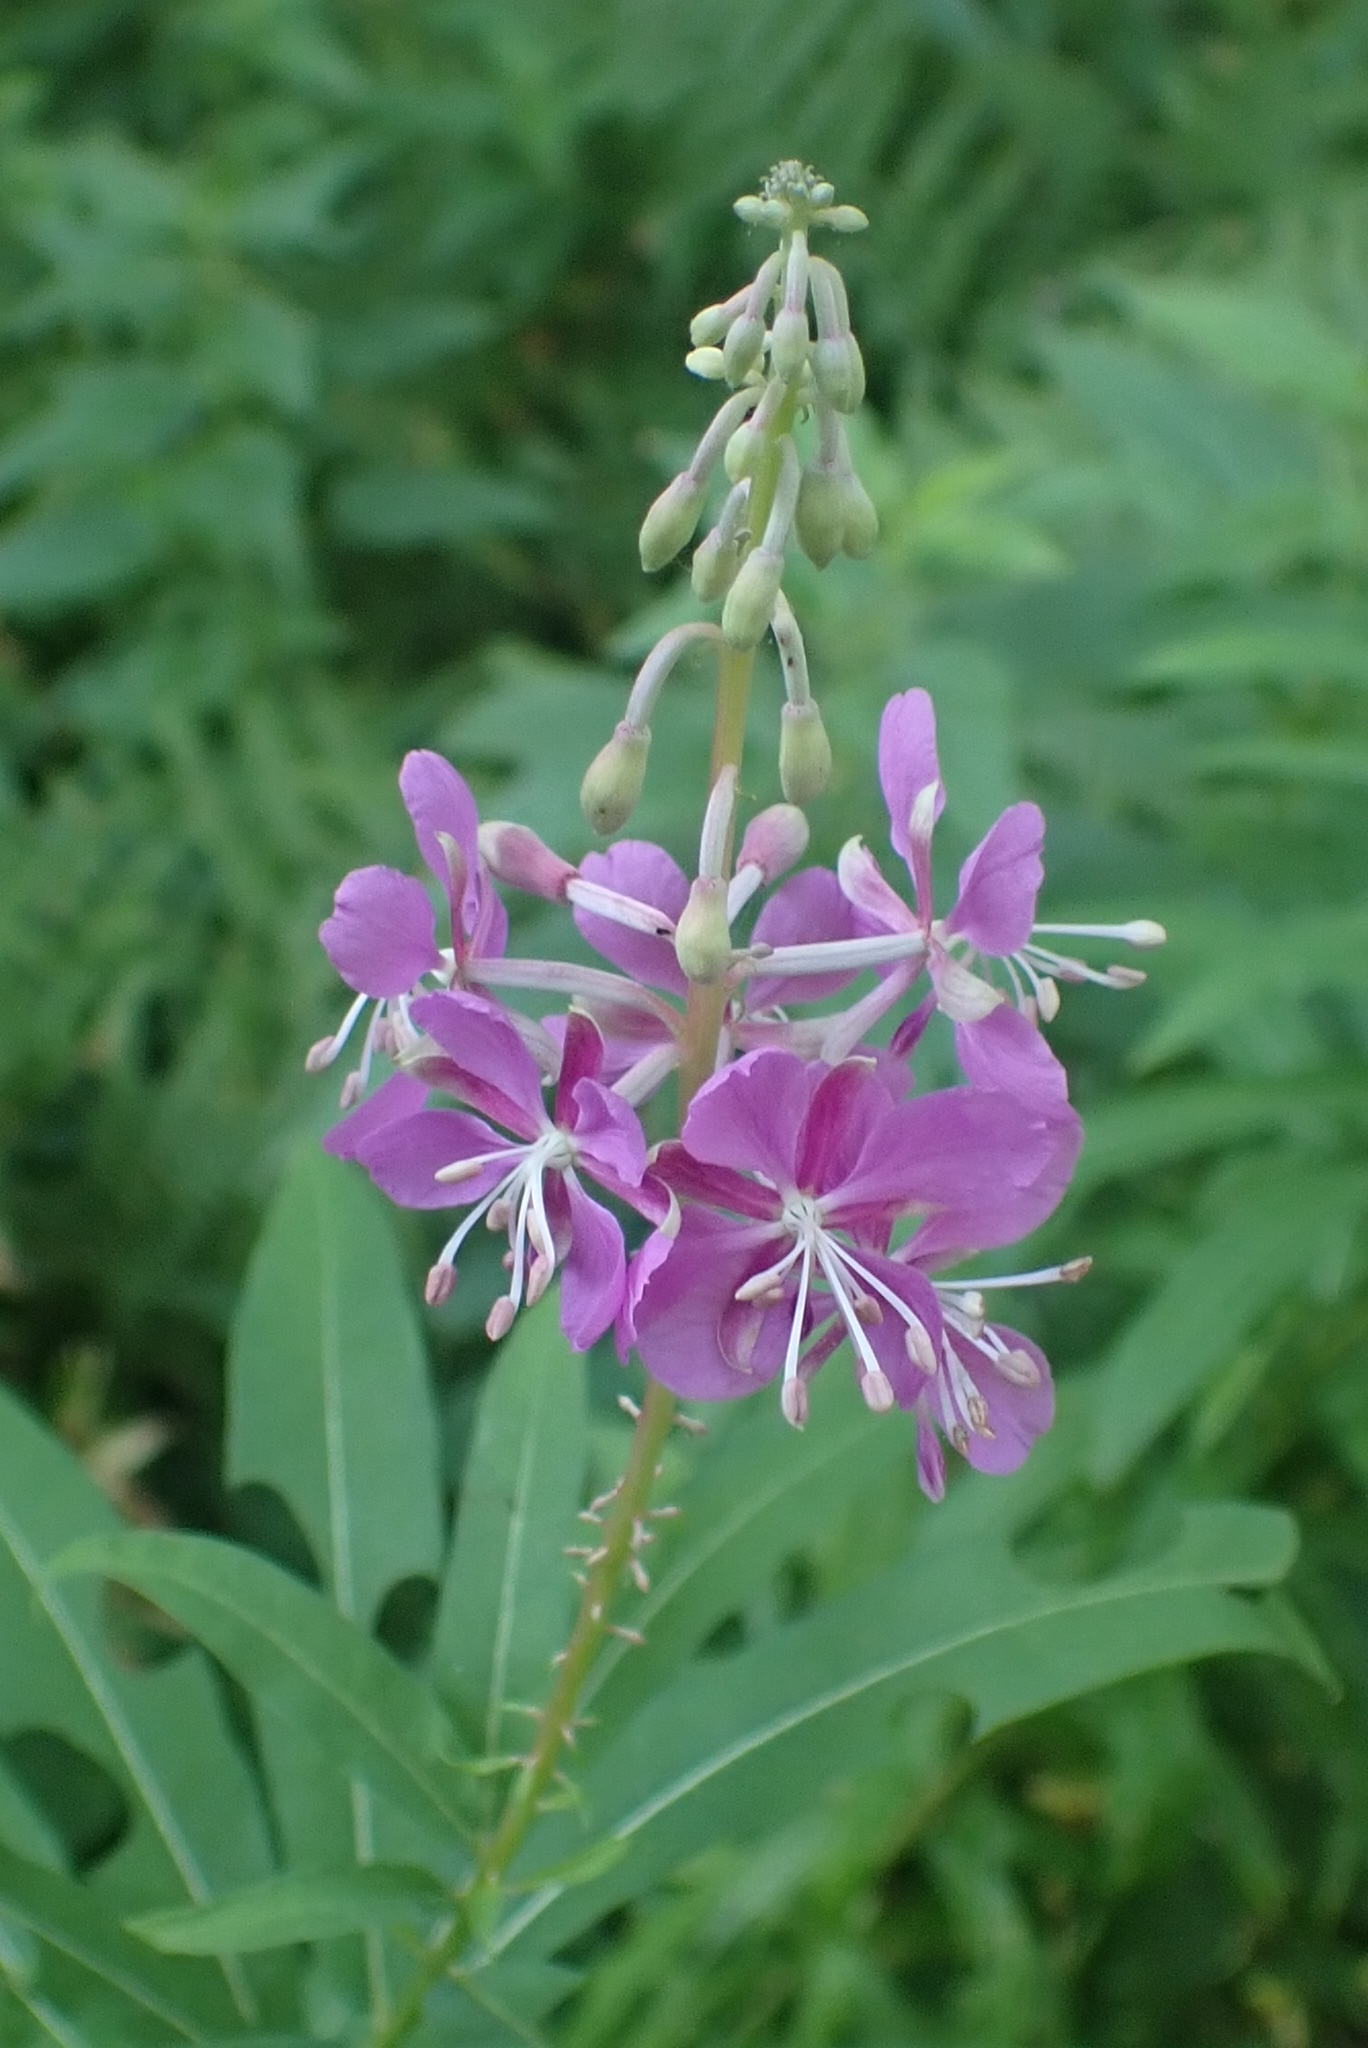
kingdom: Plantae
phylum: Tracheophyta
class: Magnoliopsida
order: Myrtales
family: Onagraceae
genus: Chamaenerion
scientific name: Chamaenerion angustifolium
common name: Fireweed
